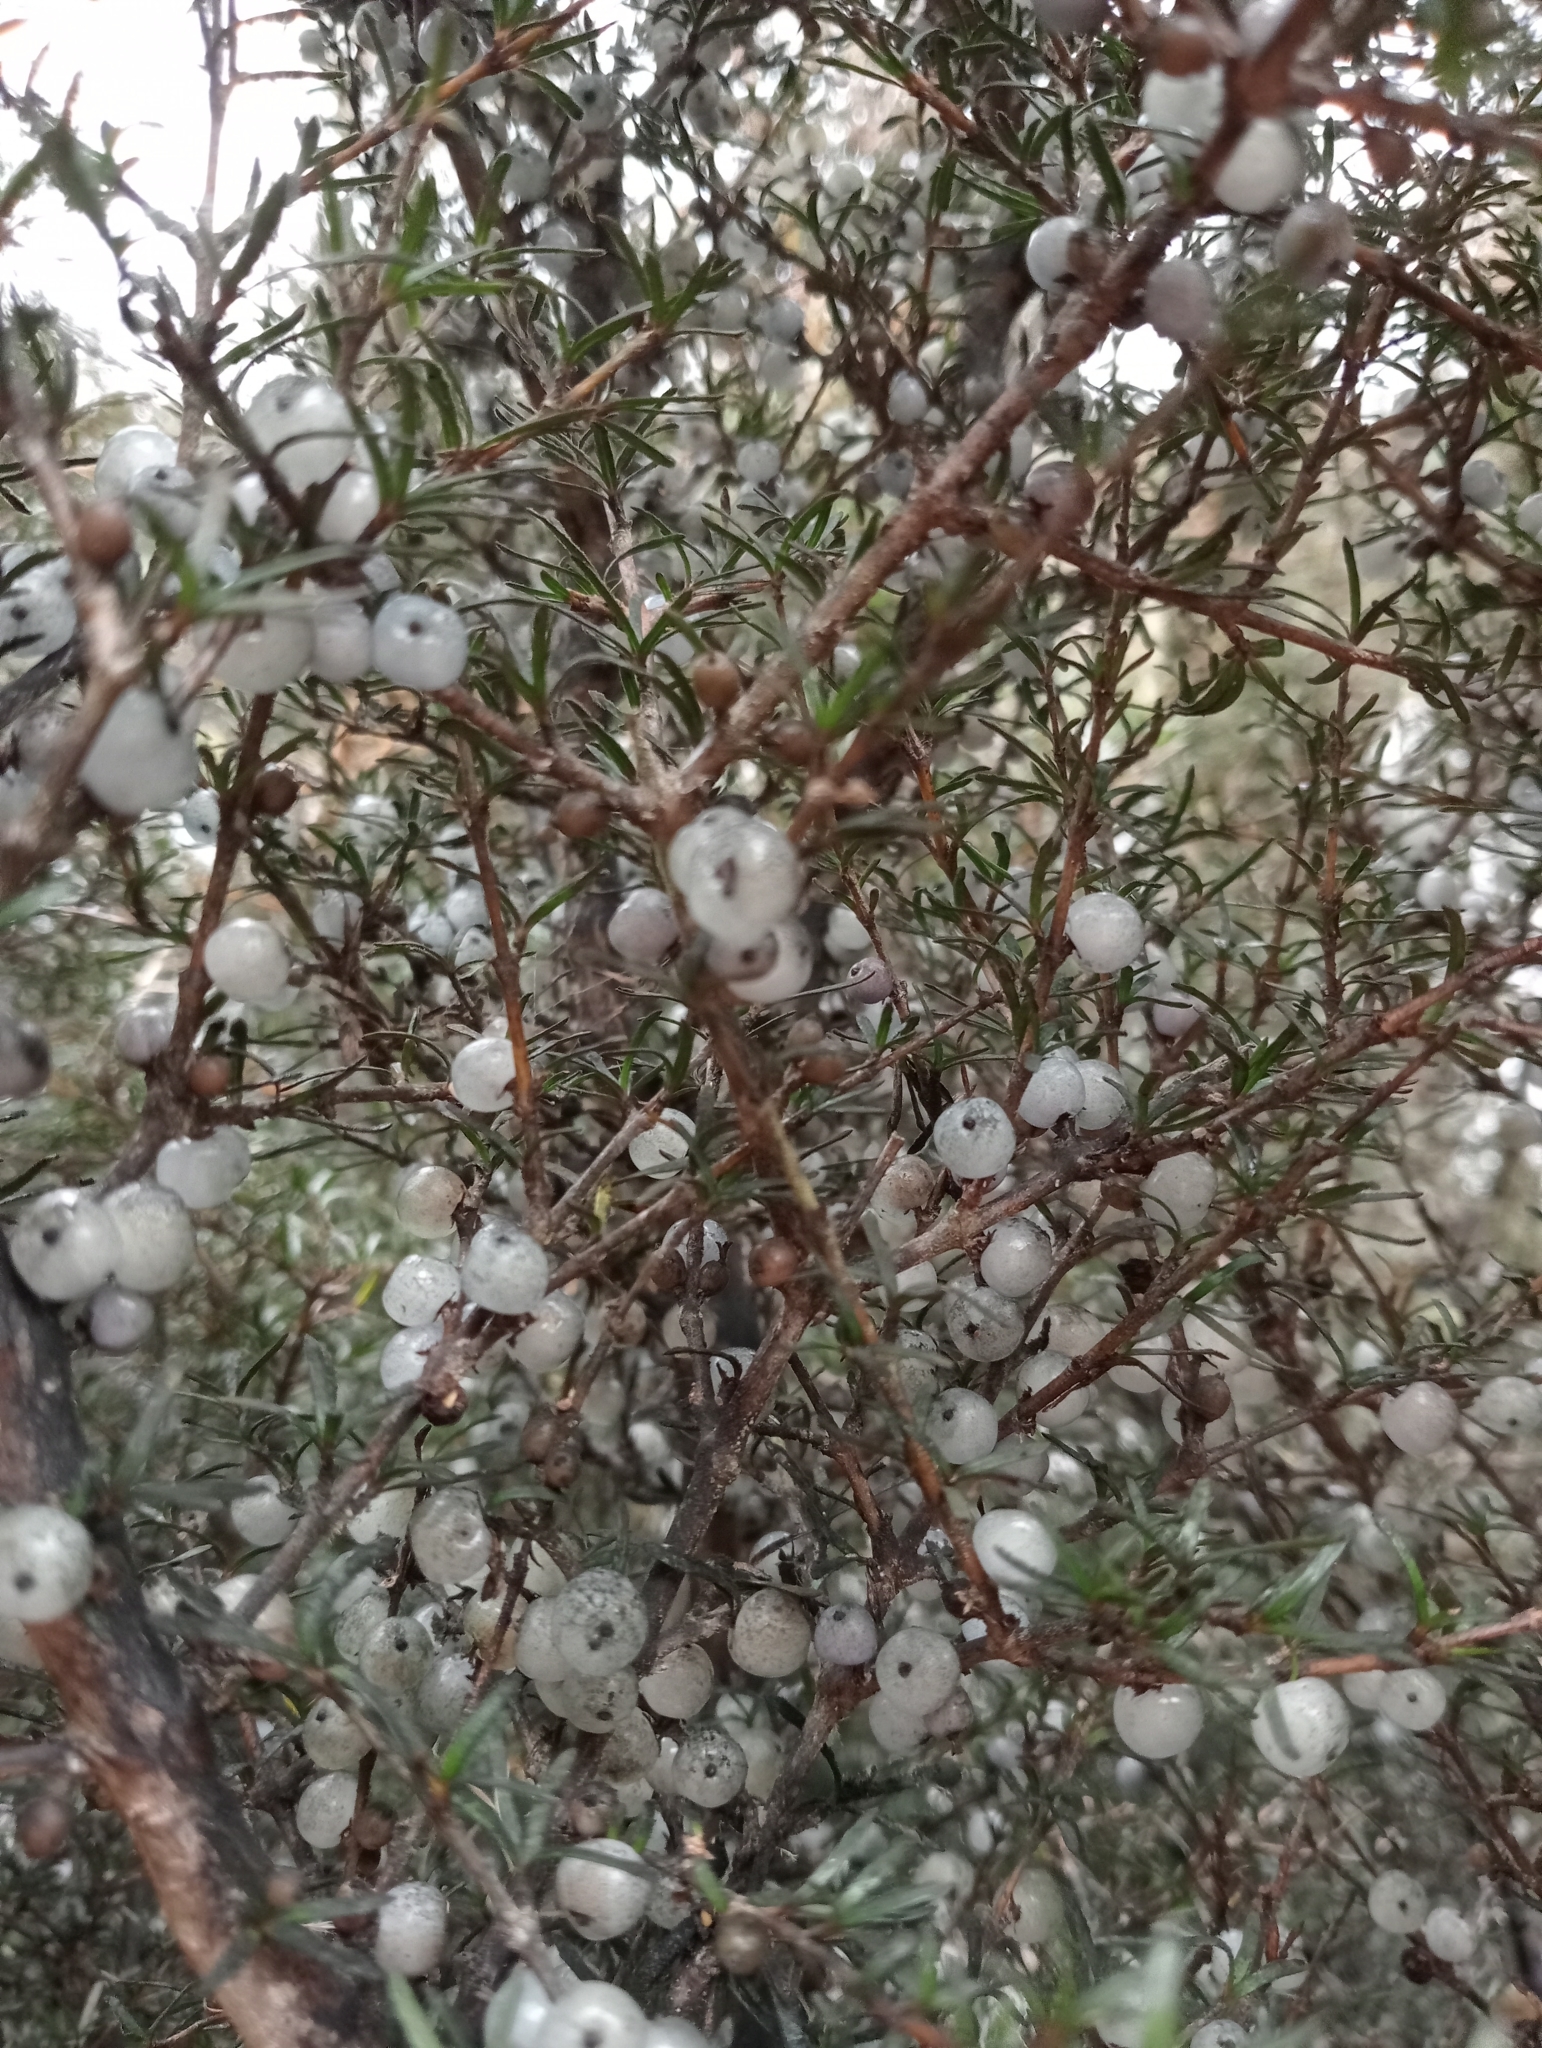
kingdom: Plantae
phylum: Tracheophyta
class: Magnoliopsida
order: Gentianales
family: Rubiaceae
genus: Coprosma
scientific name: Coprosma rugosa
